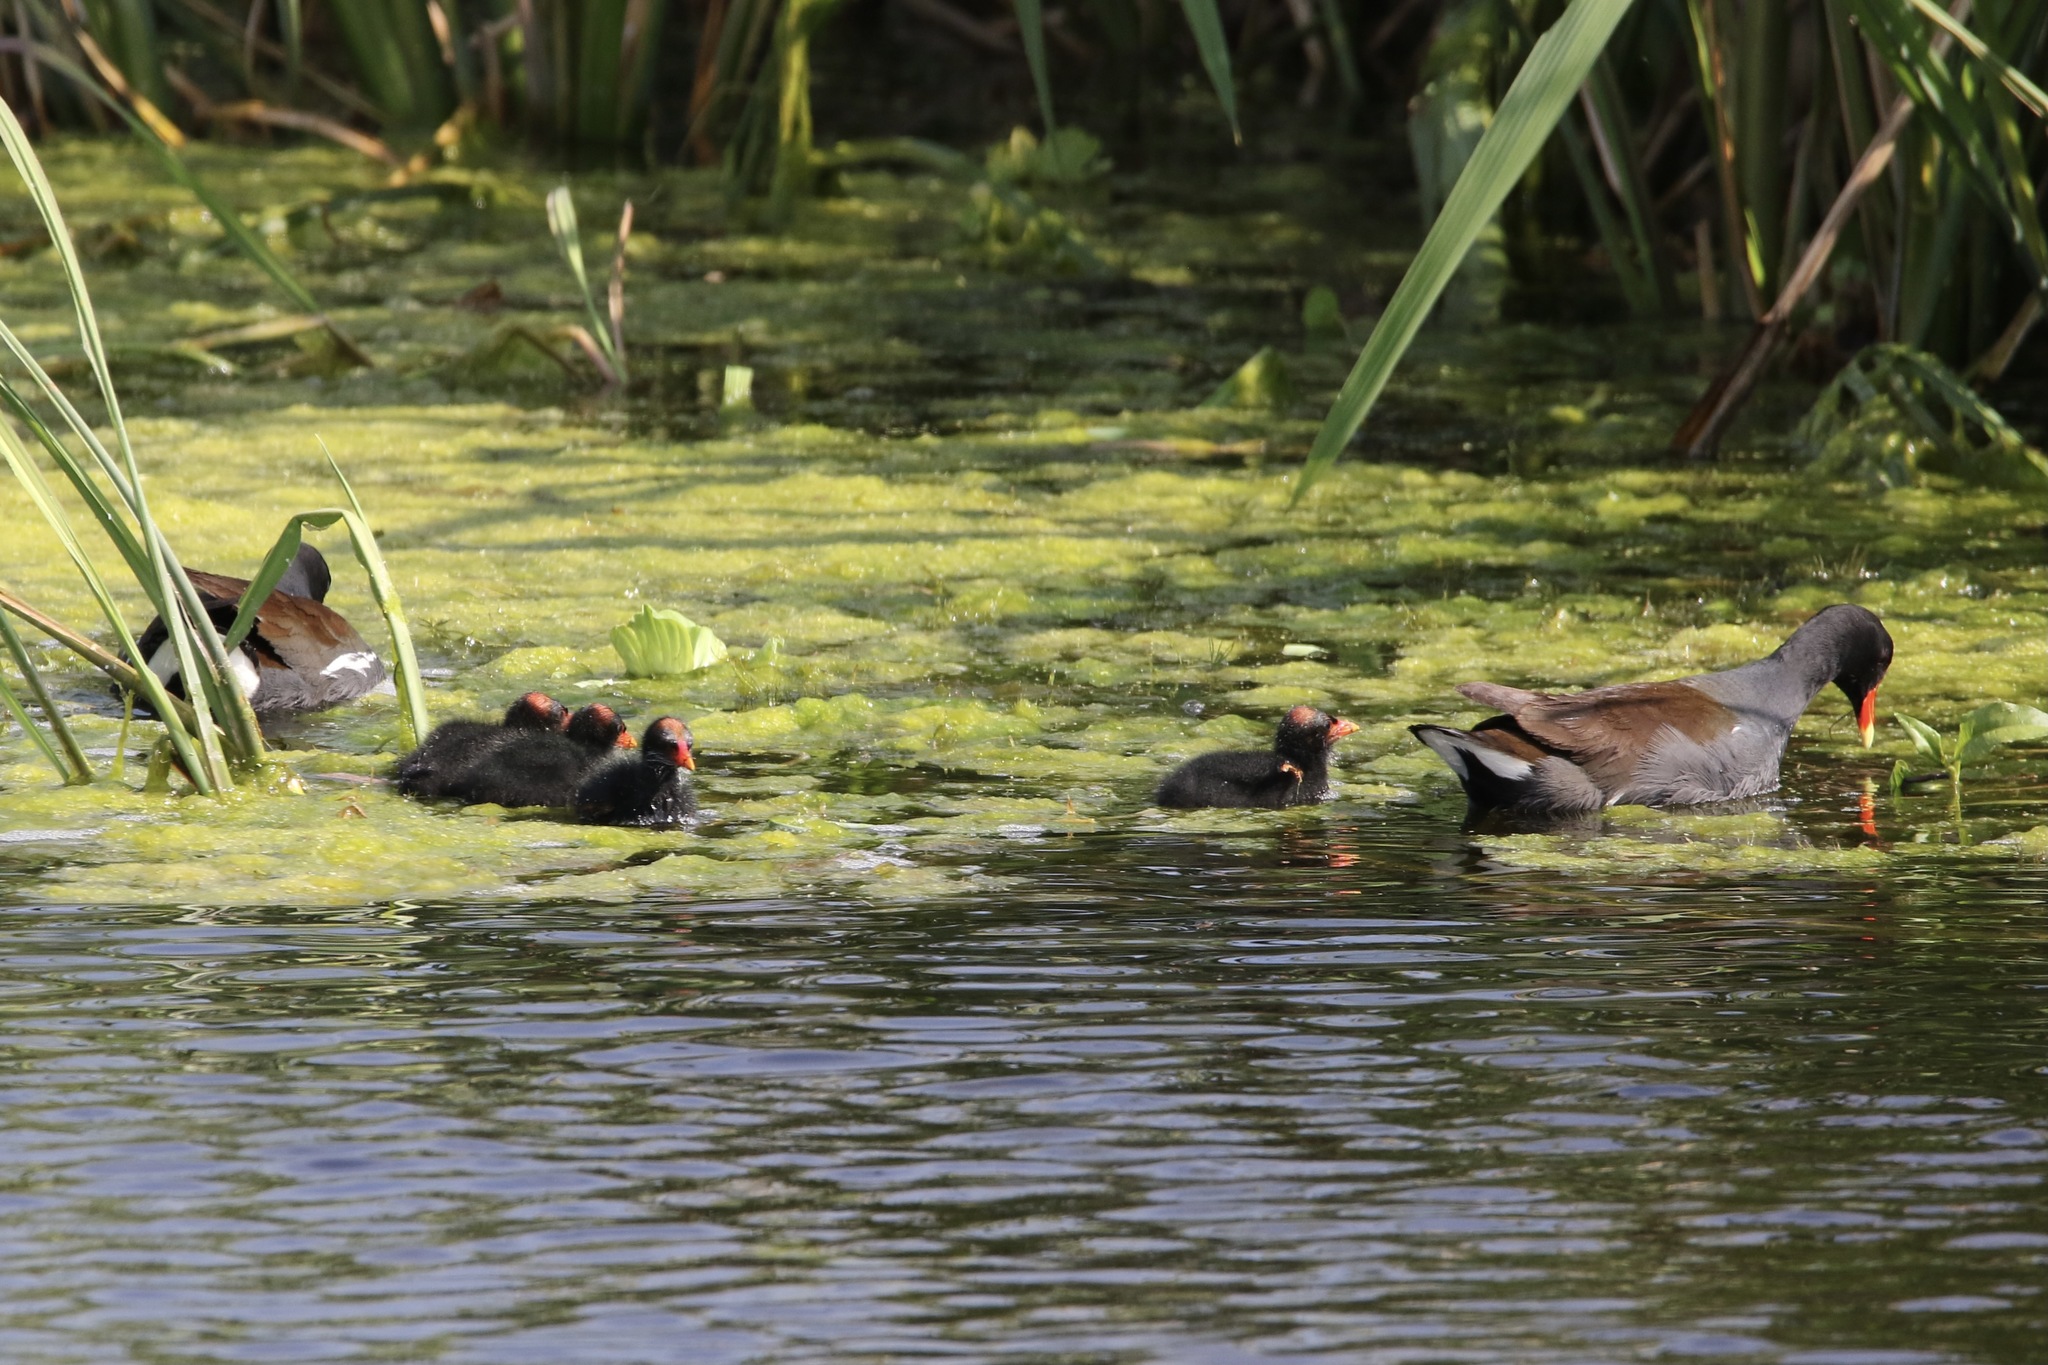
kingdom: Animalia
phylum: Chordata
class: Aves
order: Gruiformes
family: Rallidae
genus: Gallinula
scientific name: Gallinula chloropus
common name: Common moorhen
